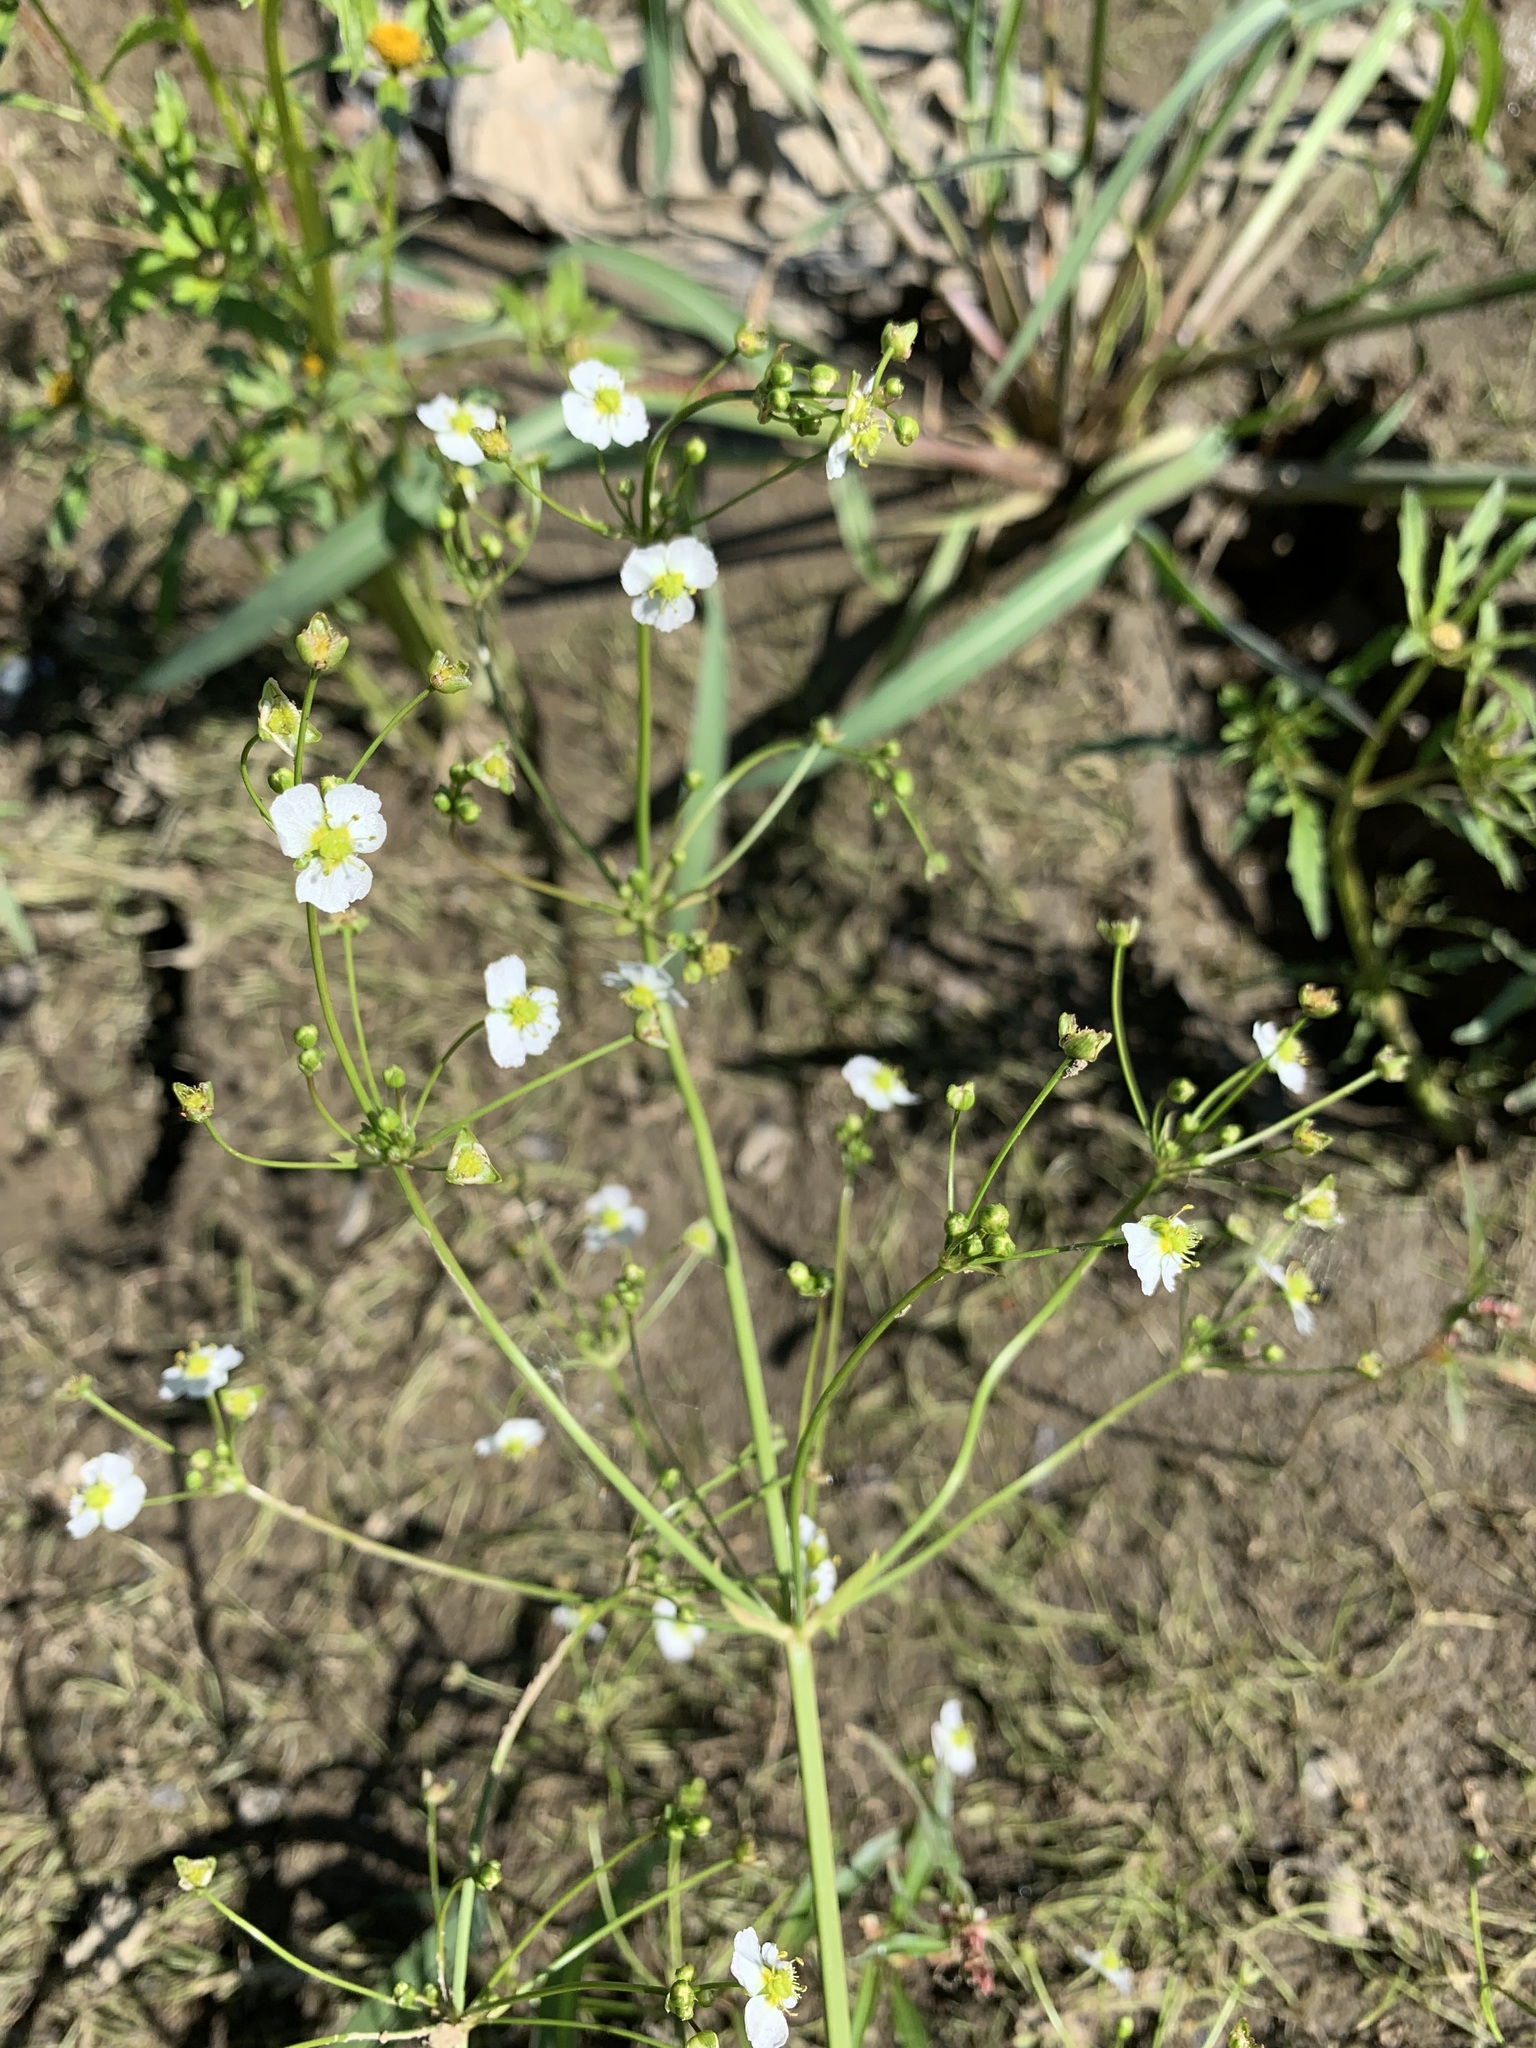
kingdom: Plantae
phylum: Tracheophyta
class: Liliopsida
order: Alismatales
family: Alismataceae
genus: Alisma
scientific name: Alisma plantago-aquatica
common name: Water-plantain
